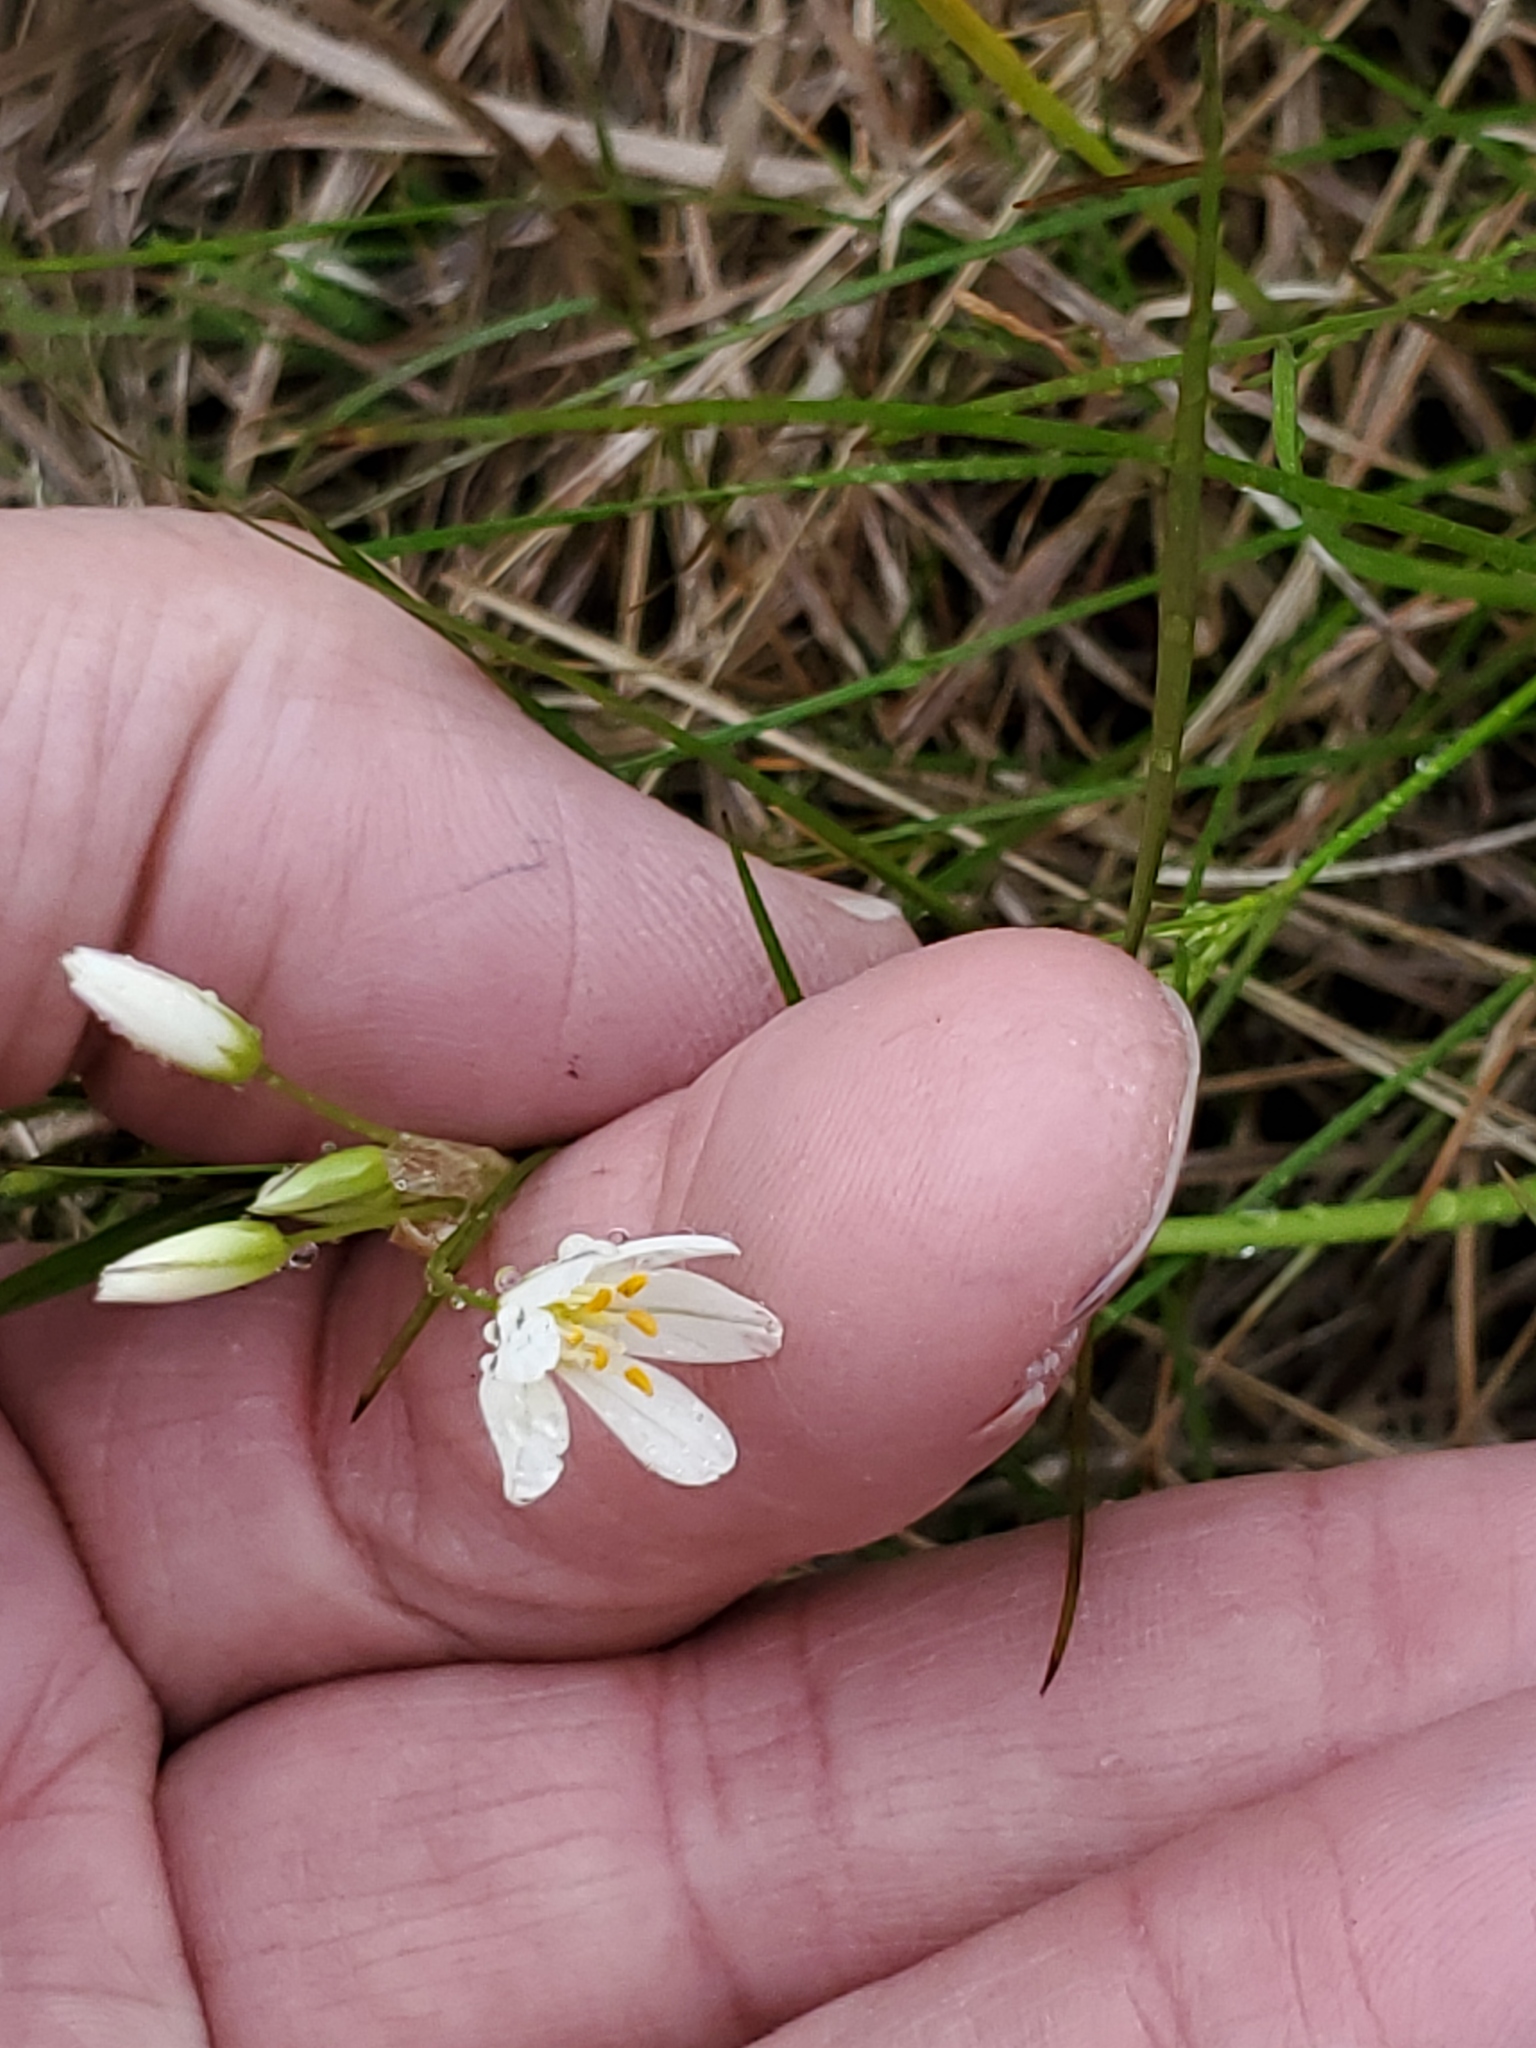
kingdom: Plantae
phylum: Tracheophyta
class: Liliopsida
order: Asparagales
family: Amaryllidaceae
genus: Nothoscordum
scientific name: Nothoscordum bivalve
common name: Crow-poison
